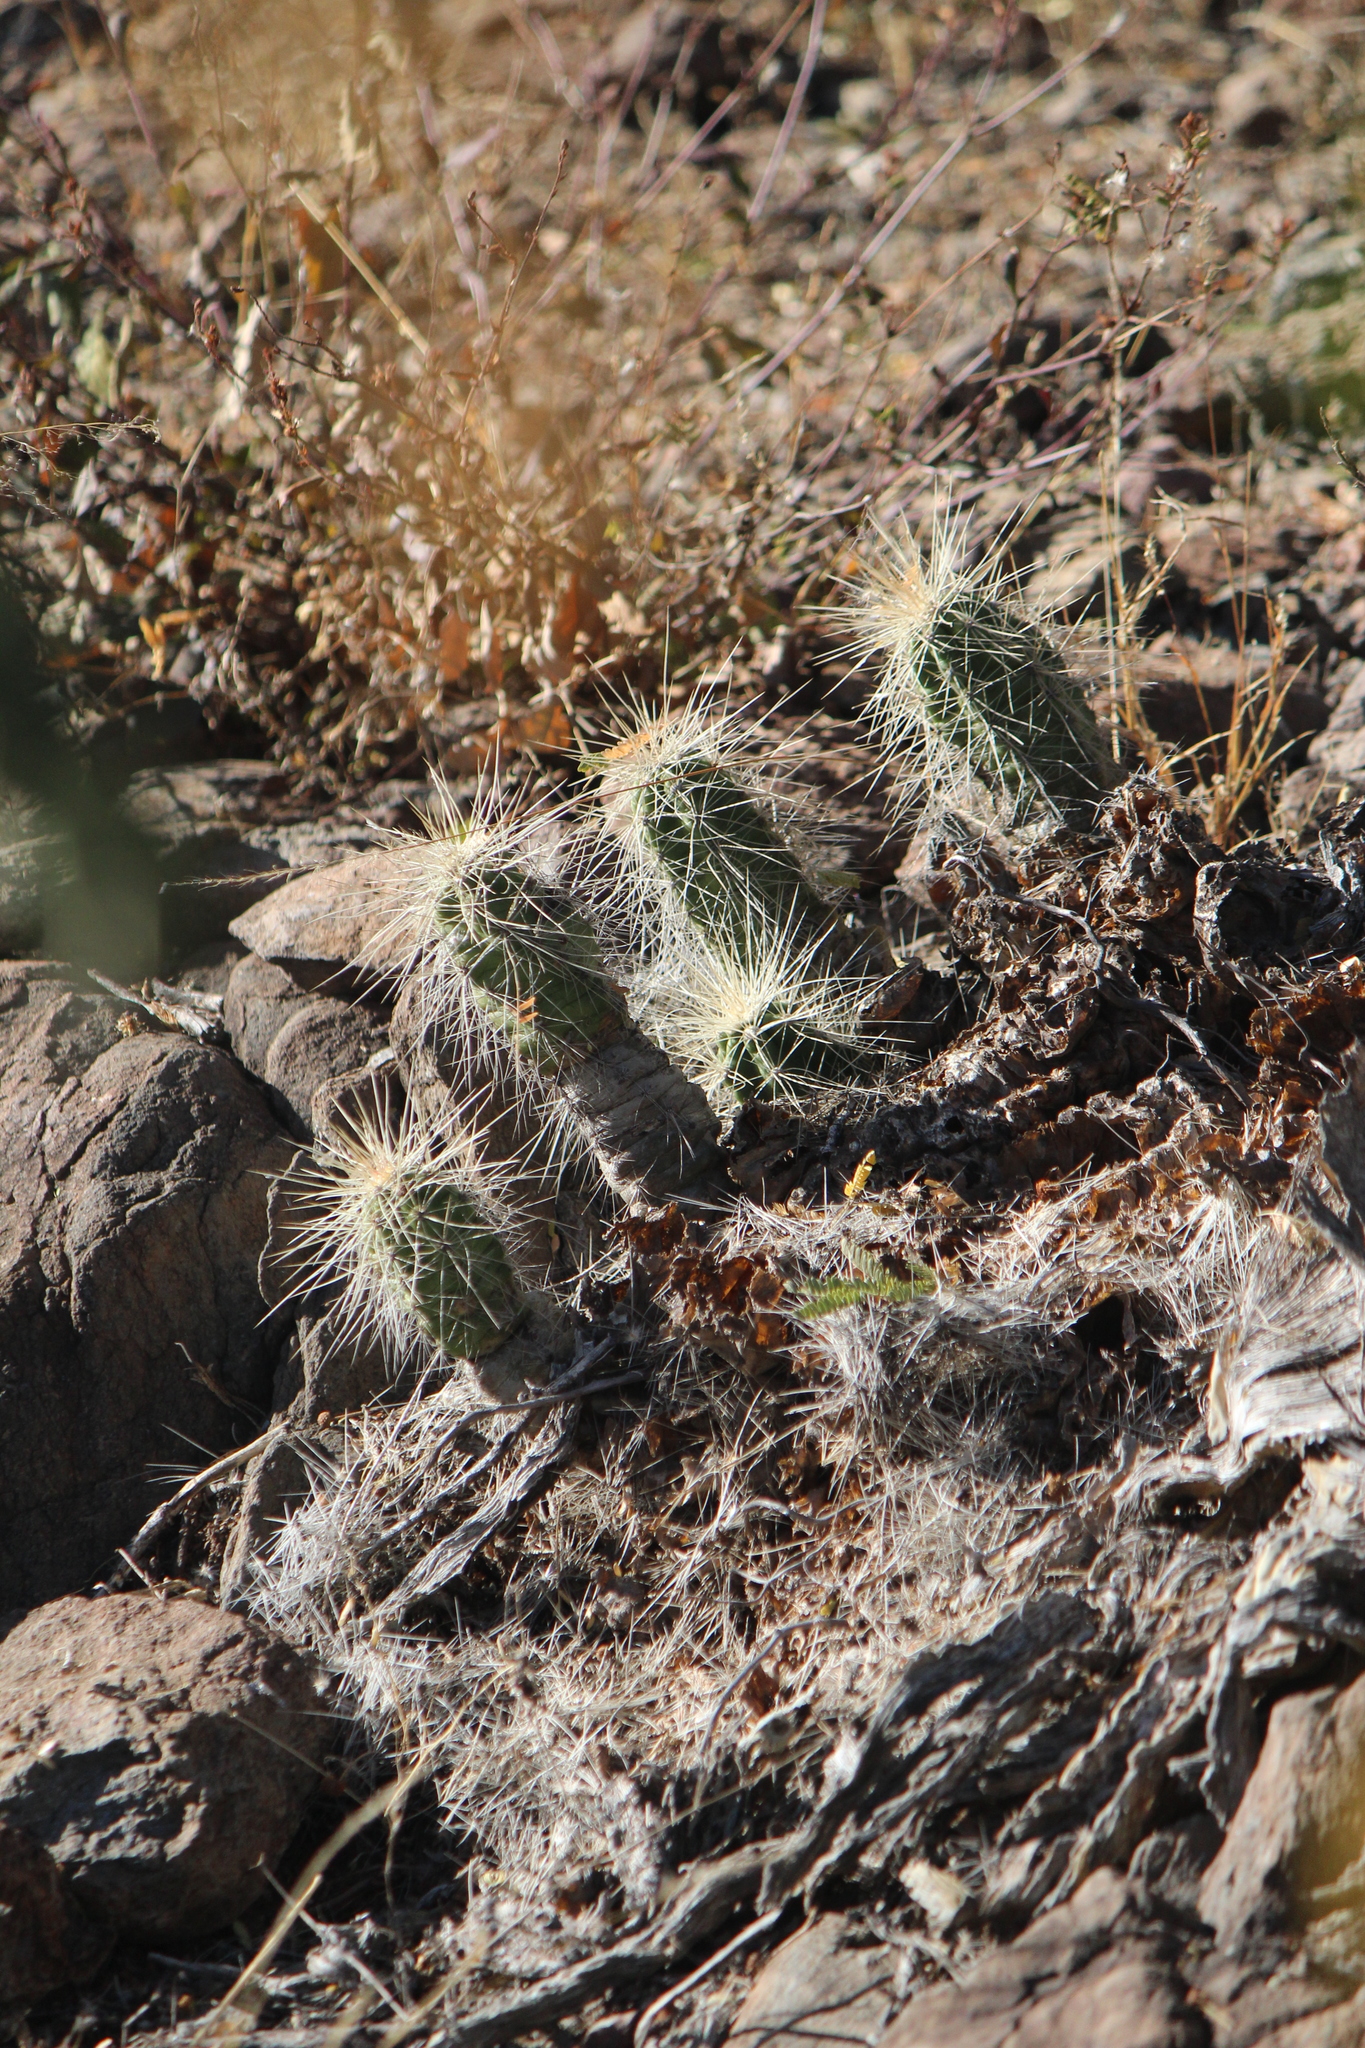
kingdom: Plantae
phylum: Tracheophyta
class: Magnoliopsida
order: Caryophyllales
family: Cactaceae
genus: Echinocereus
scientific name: Echinocereus cinerascens
